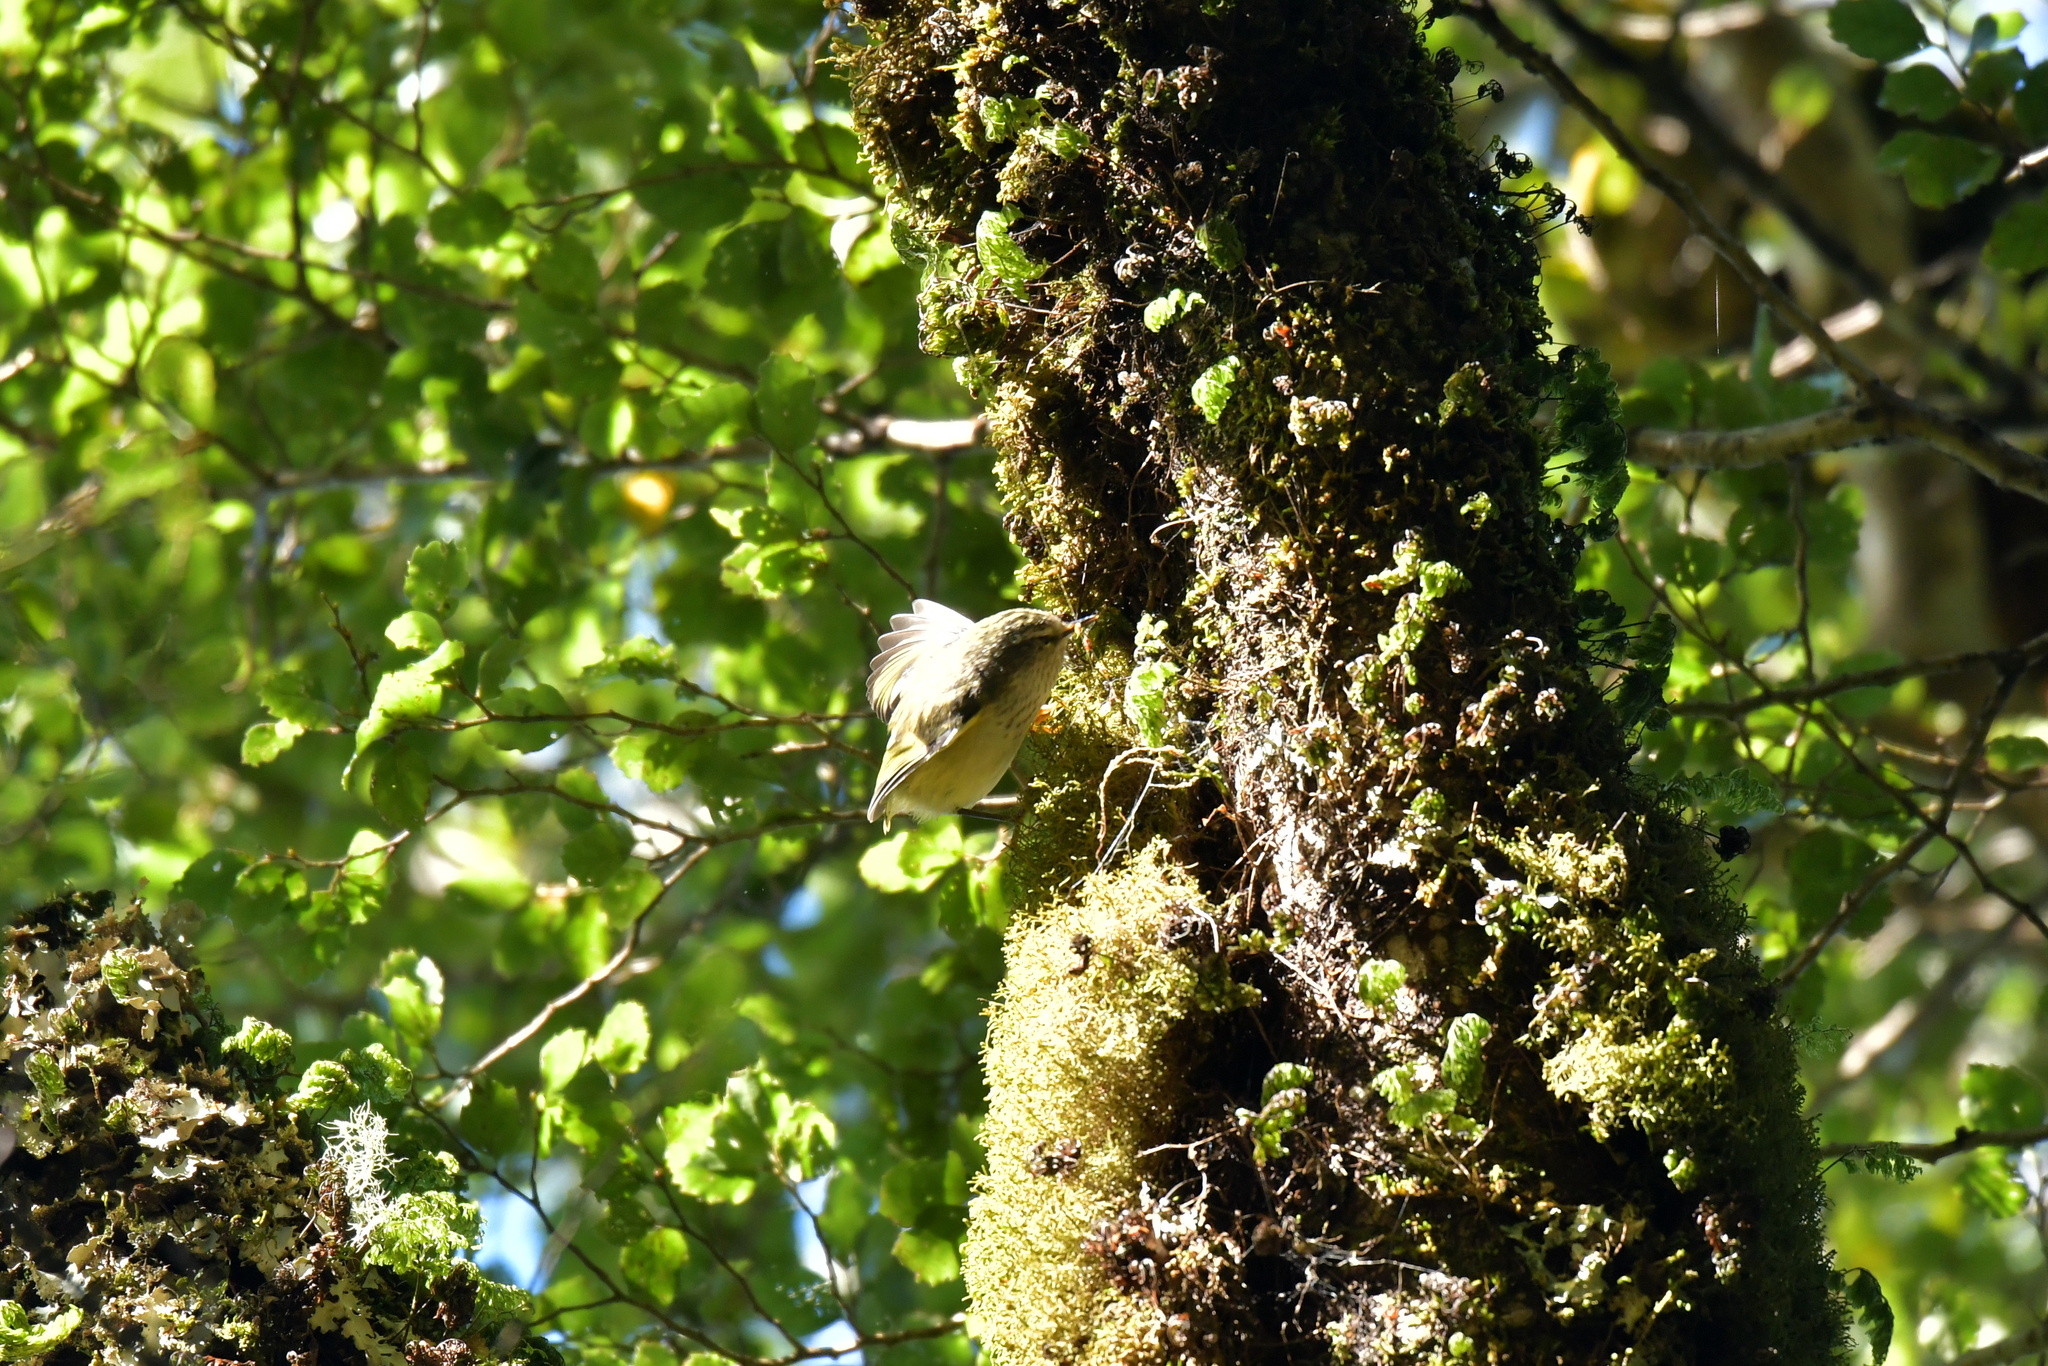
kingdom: Animalia
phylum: Chordata
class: Aves
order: Passeriformes
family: Acanthisittidae
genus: Acanthisitta
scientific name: Acanthisitta chloris
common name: Rifleman
